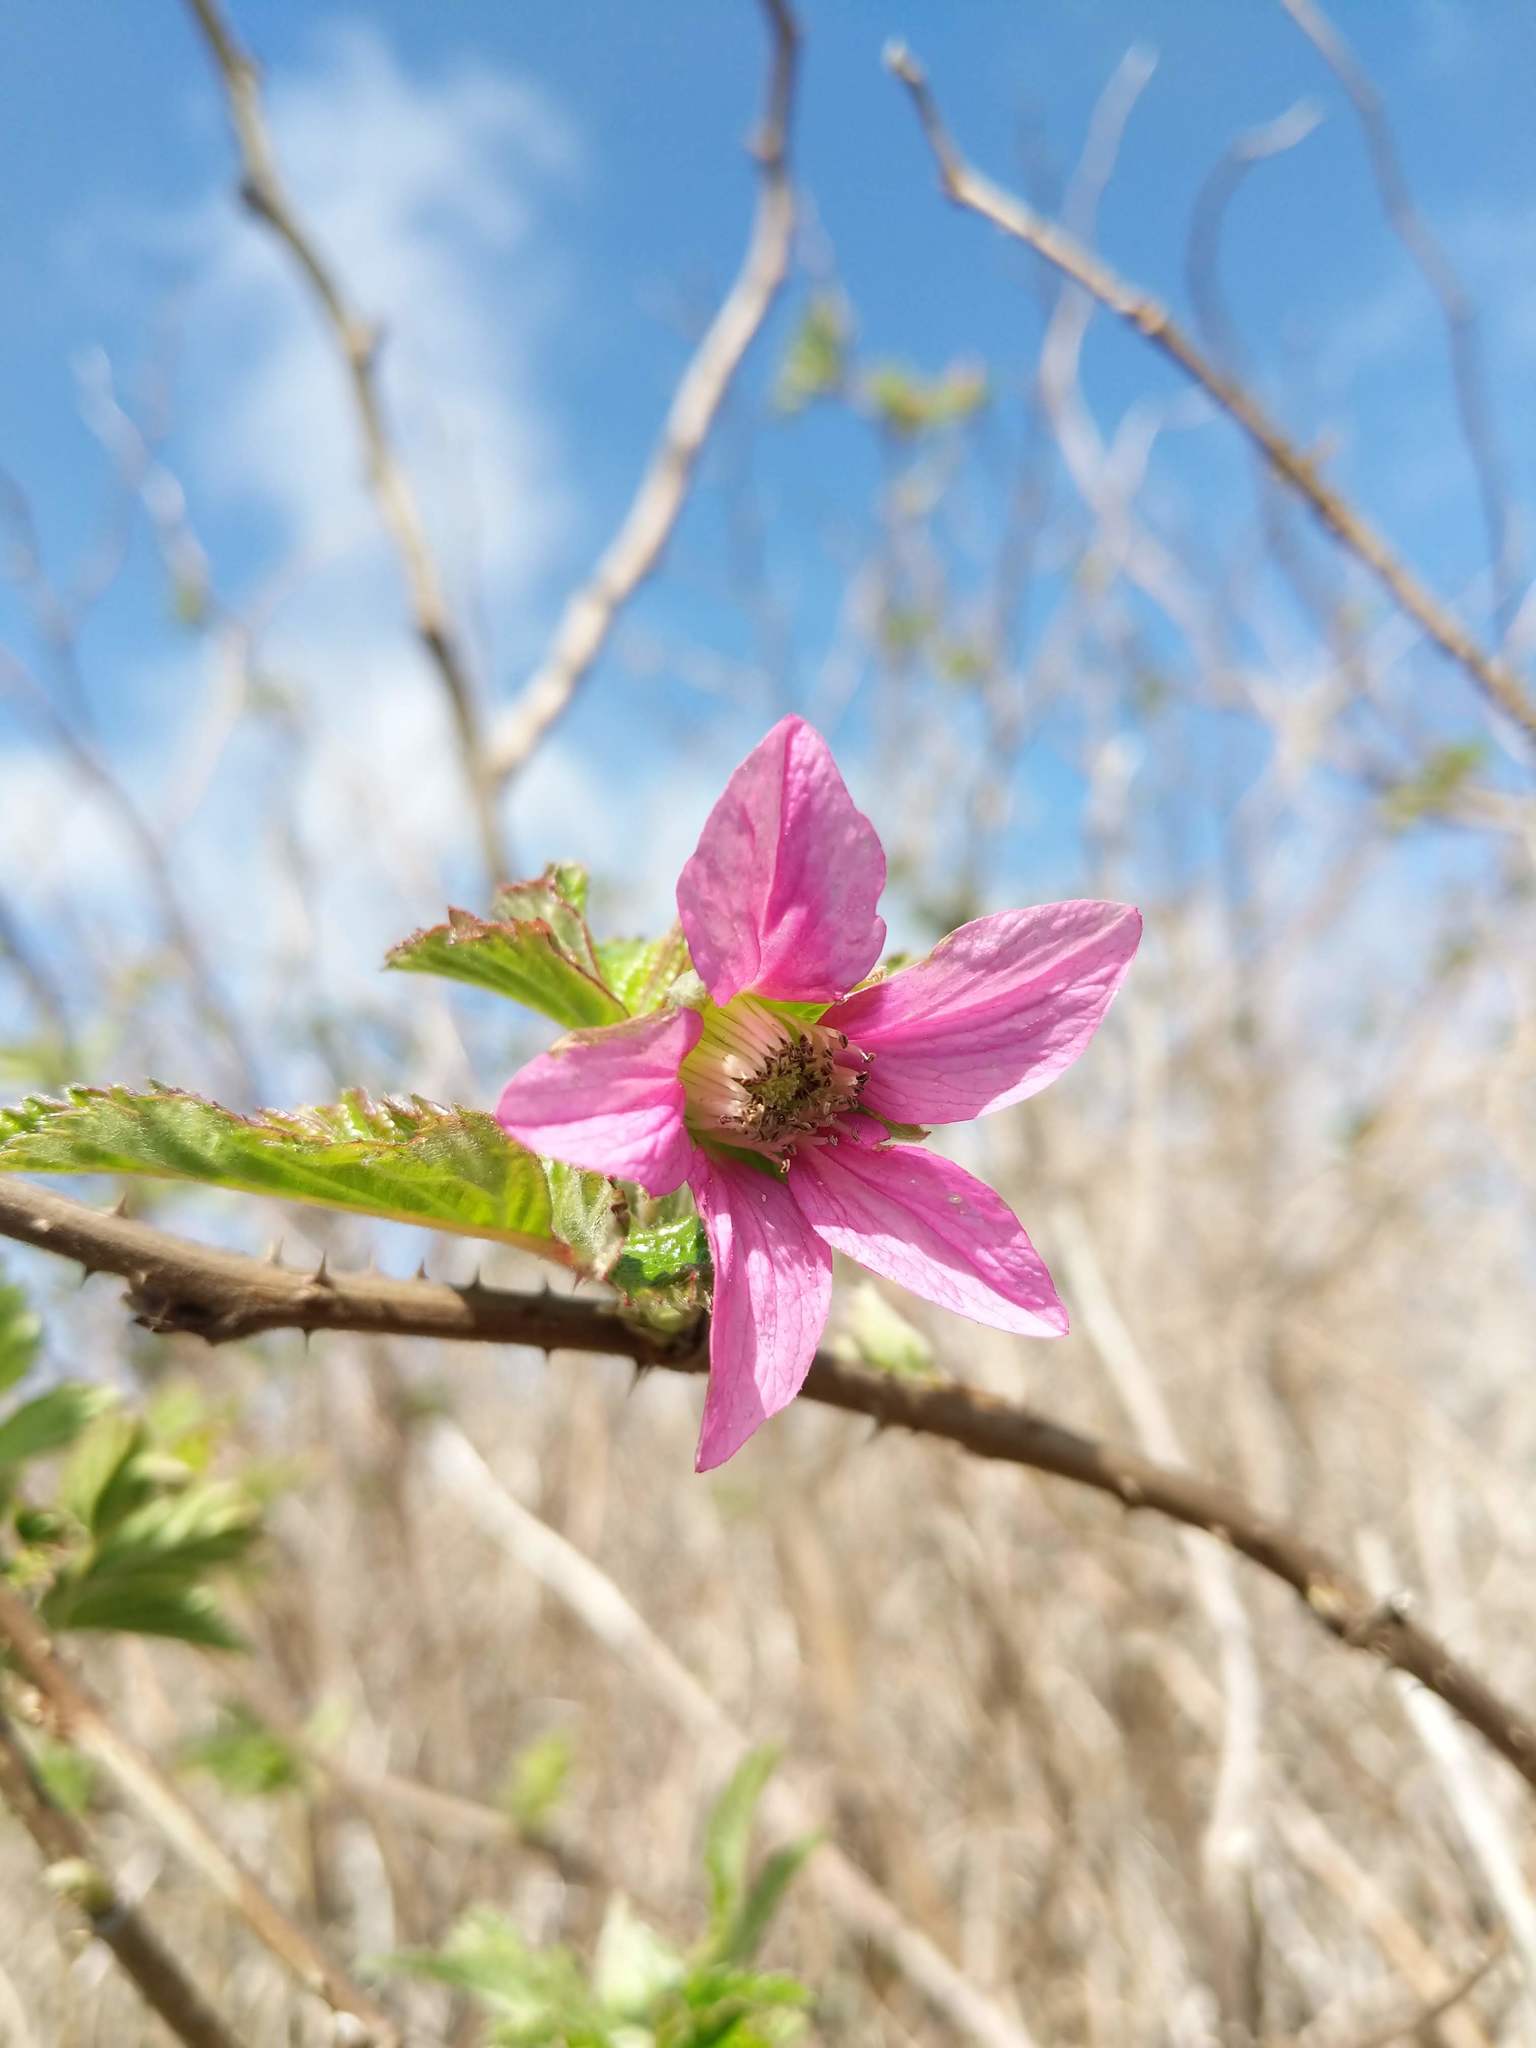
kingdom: Plantae
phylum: Tracheophyta
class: Magnoliopsida
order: Rosales
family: Rosaceae
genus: Rubus
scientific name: Rubus spectabilis
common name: Salmonberry
